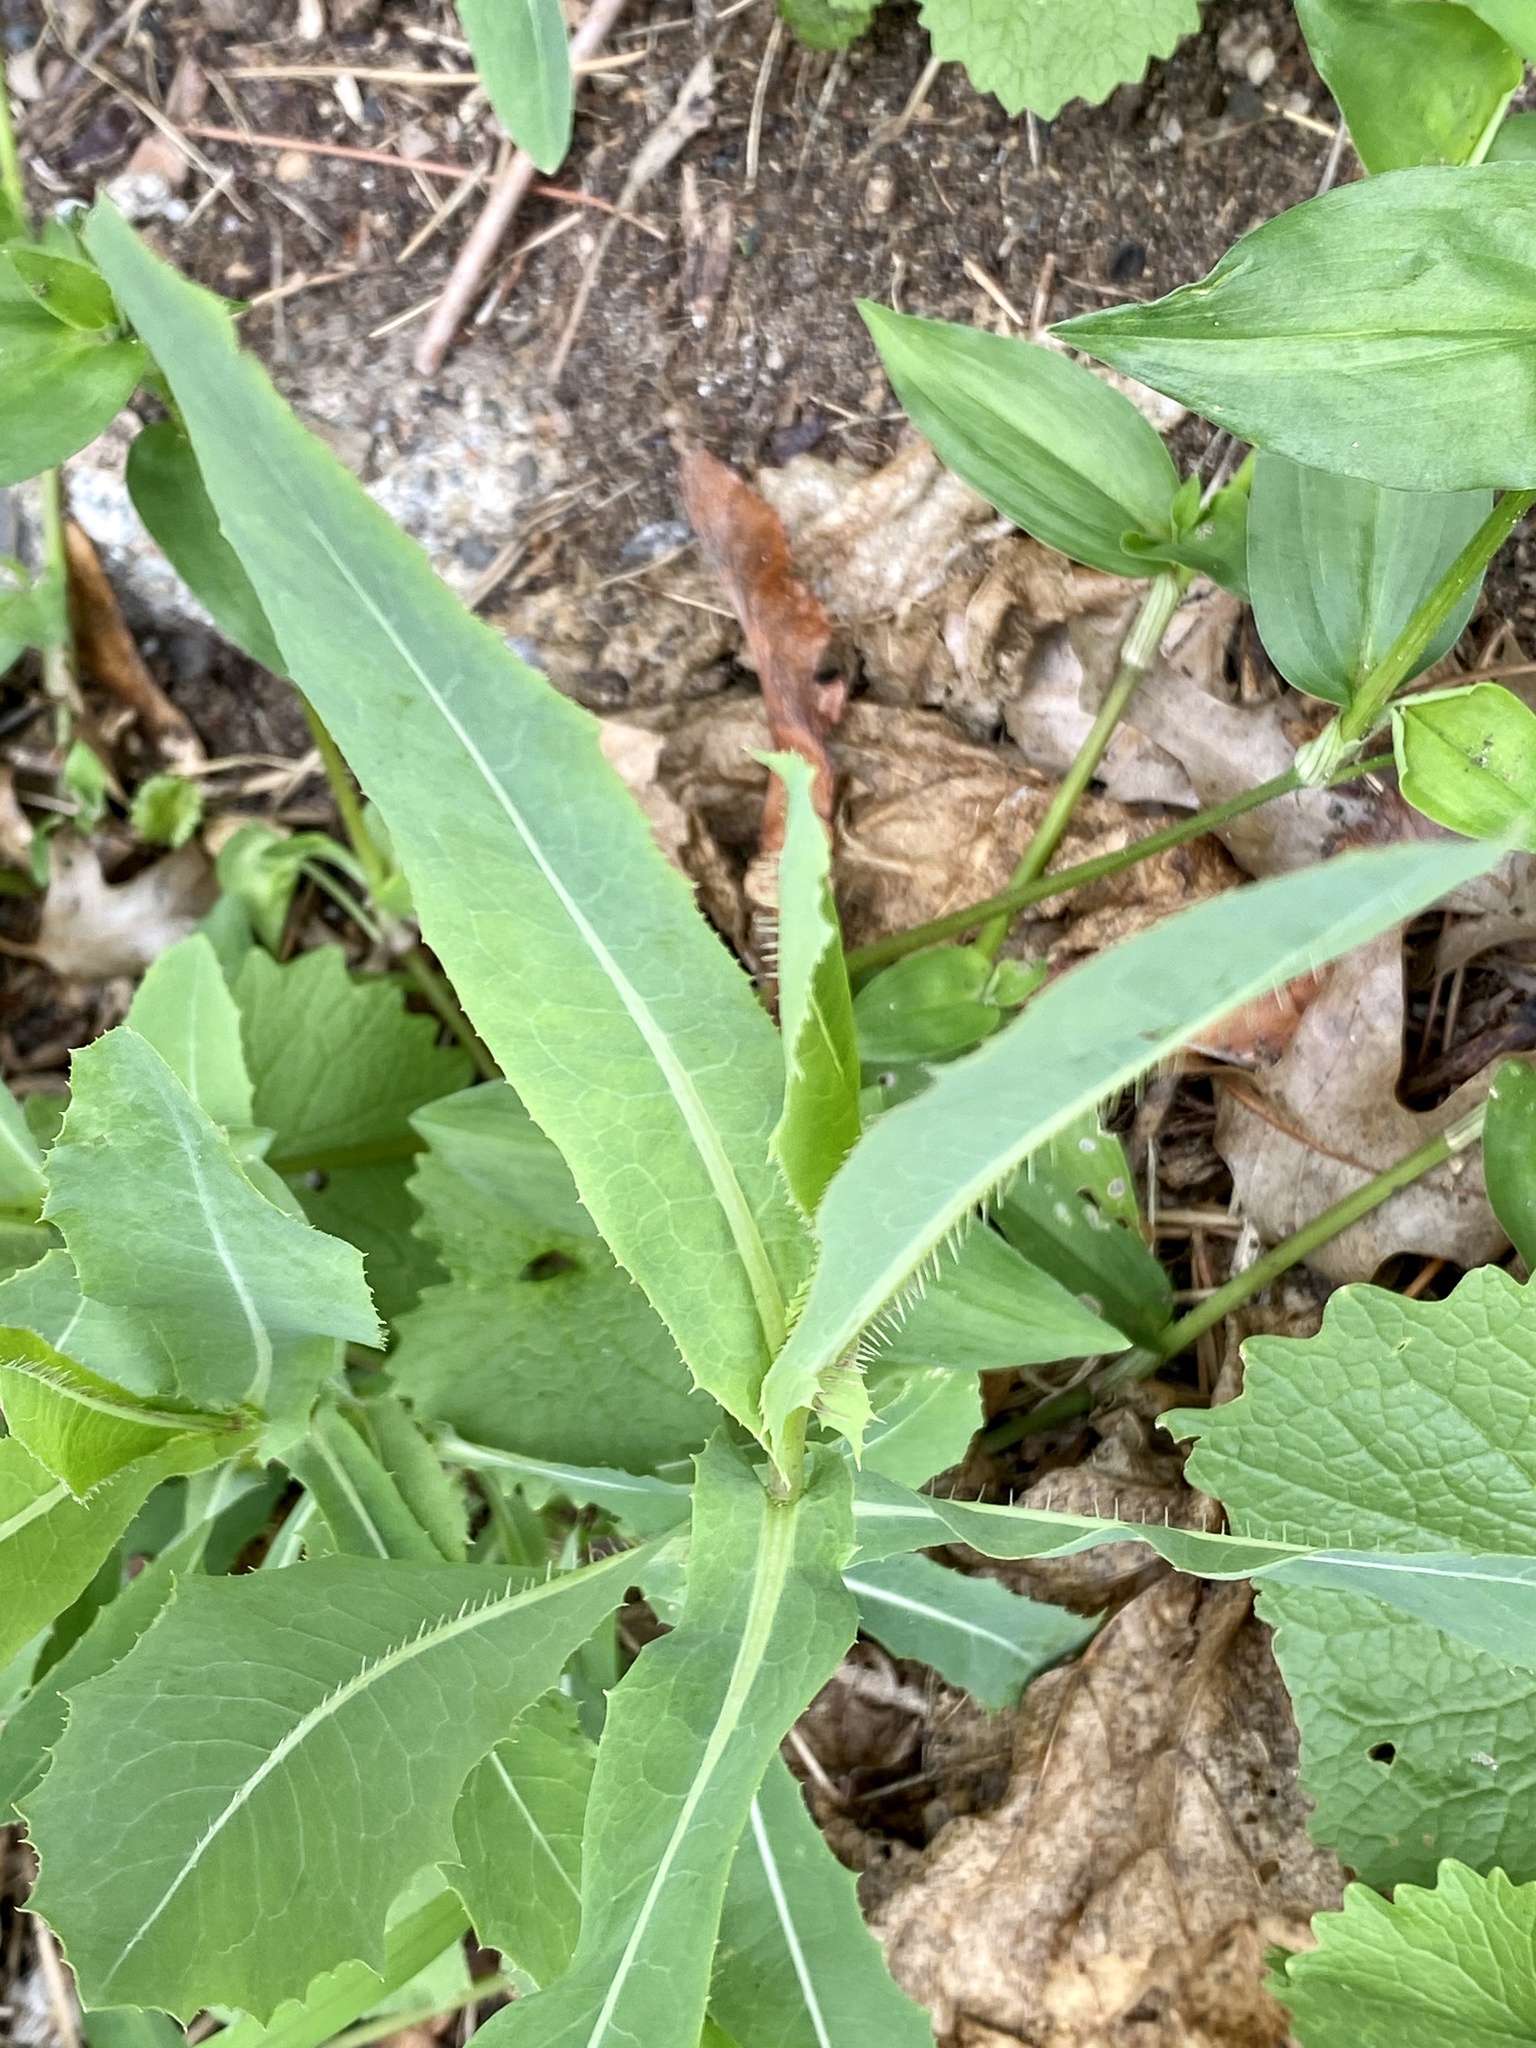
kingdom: Plantae
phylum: Tracheophyta
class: Magnoliopsida
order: Asterales
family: Asteraceae
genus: Lactuca
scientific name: Lactuca serriola
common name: Prickly lettuce
